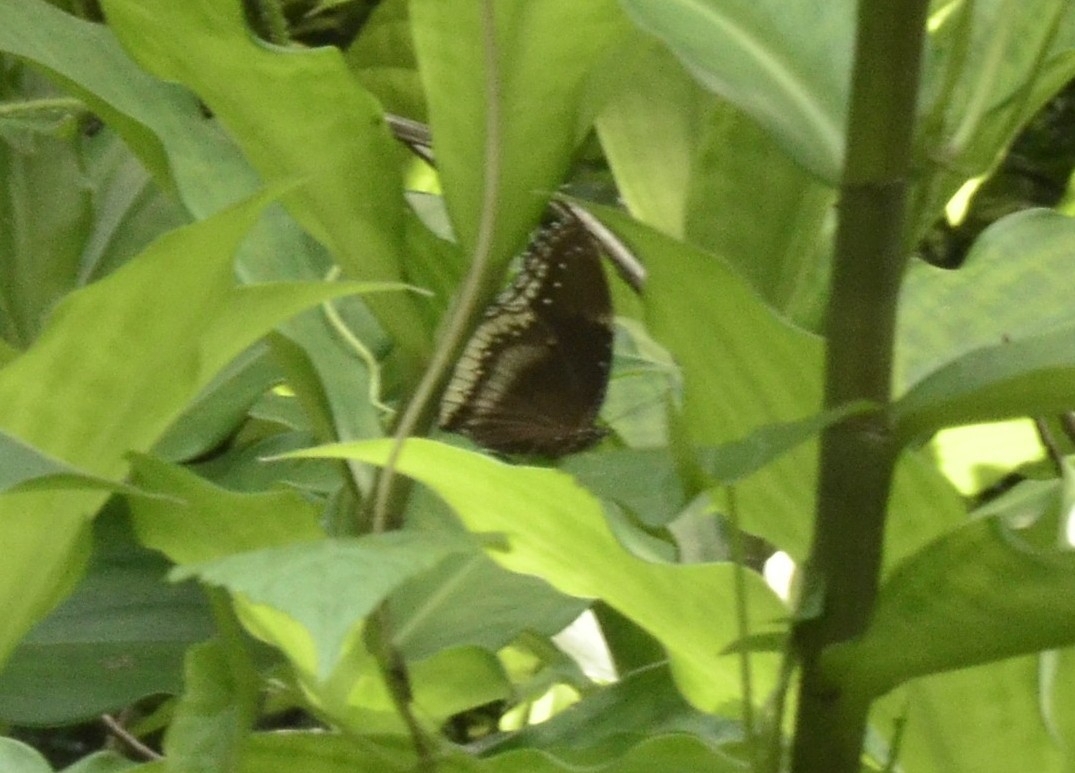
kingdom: Animalia
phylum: Arthropoda
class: Insecta
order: Lepidoptera
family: Nymphalidae
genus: Hypolimnas
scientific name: Hypolimnas bolina
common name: Great eggfly
